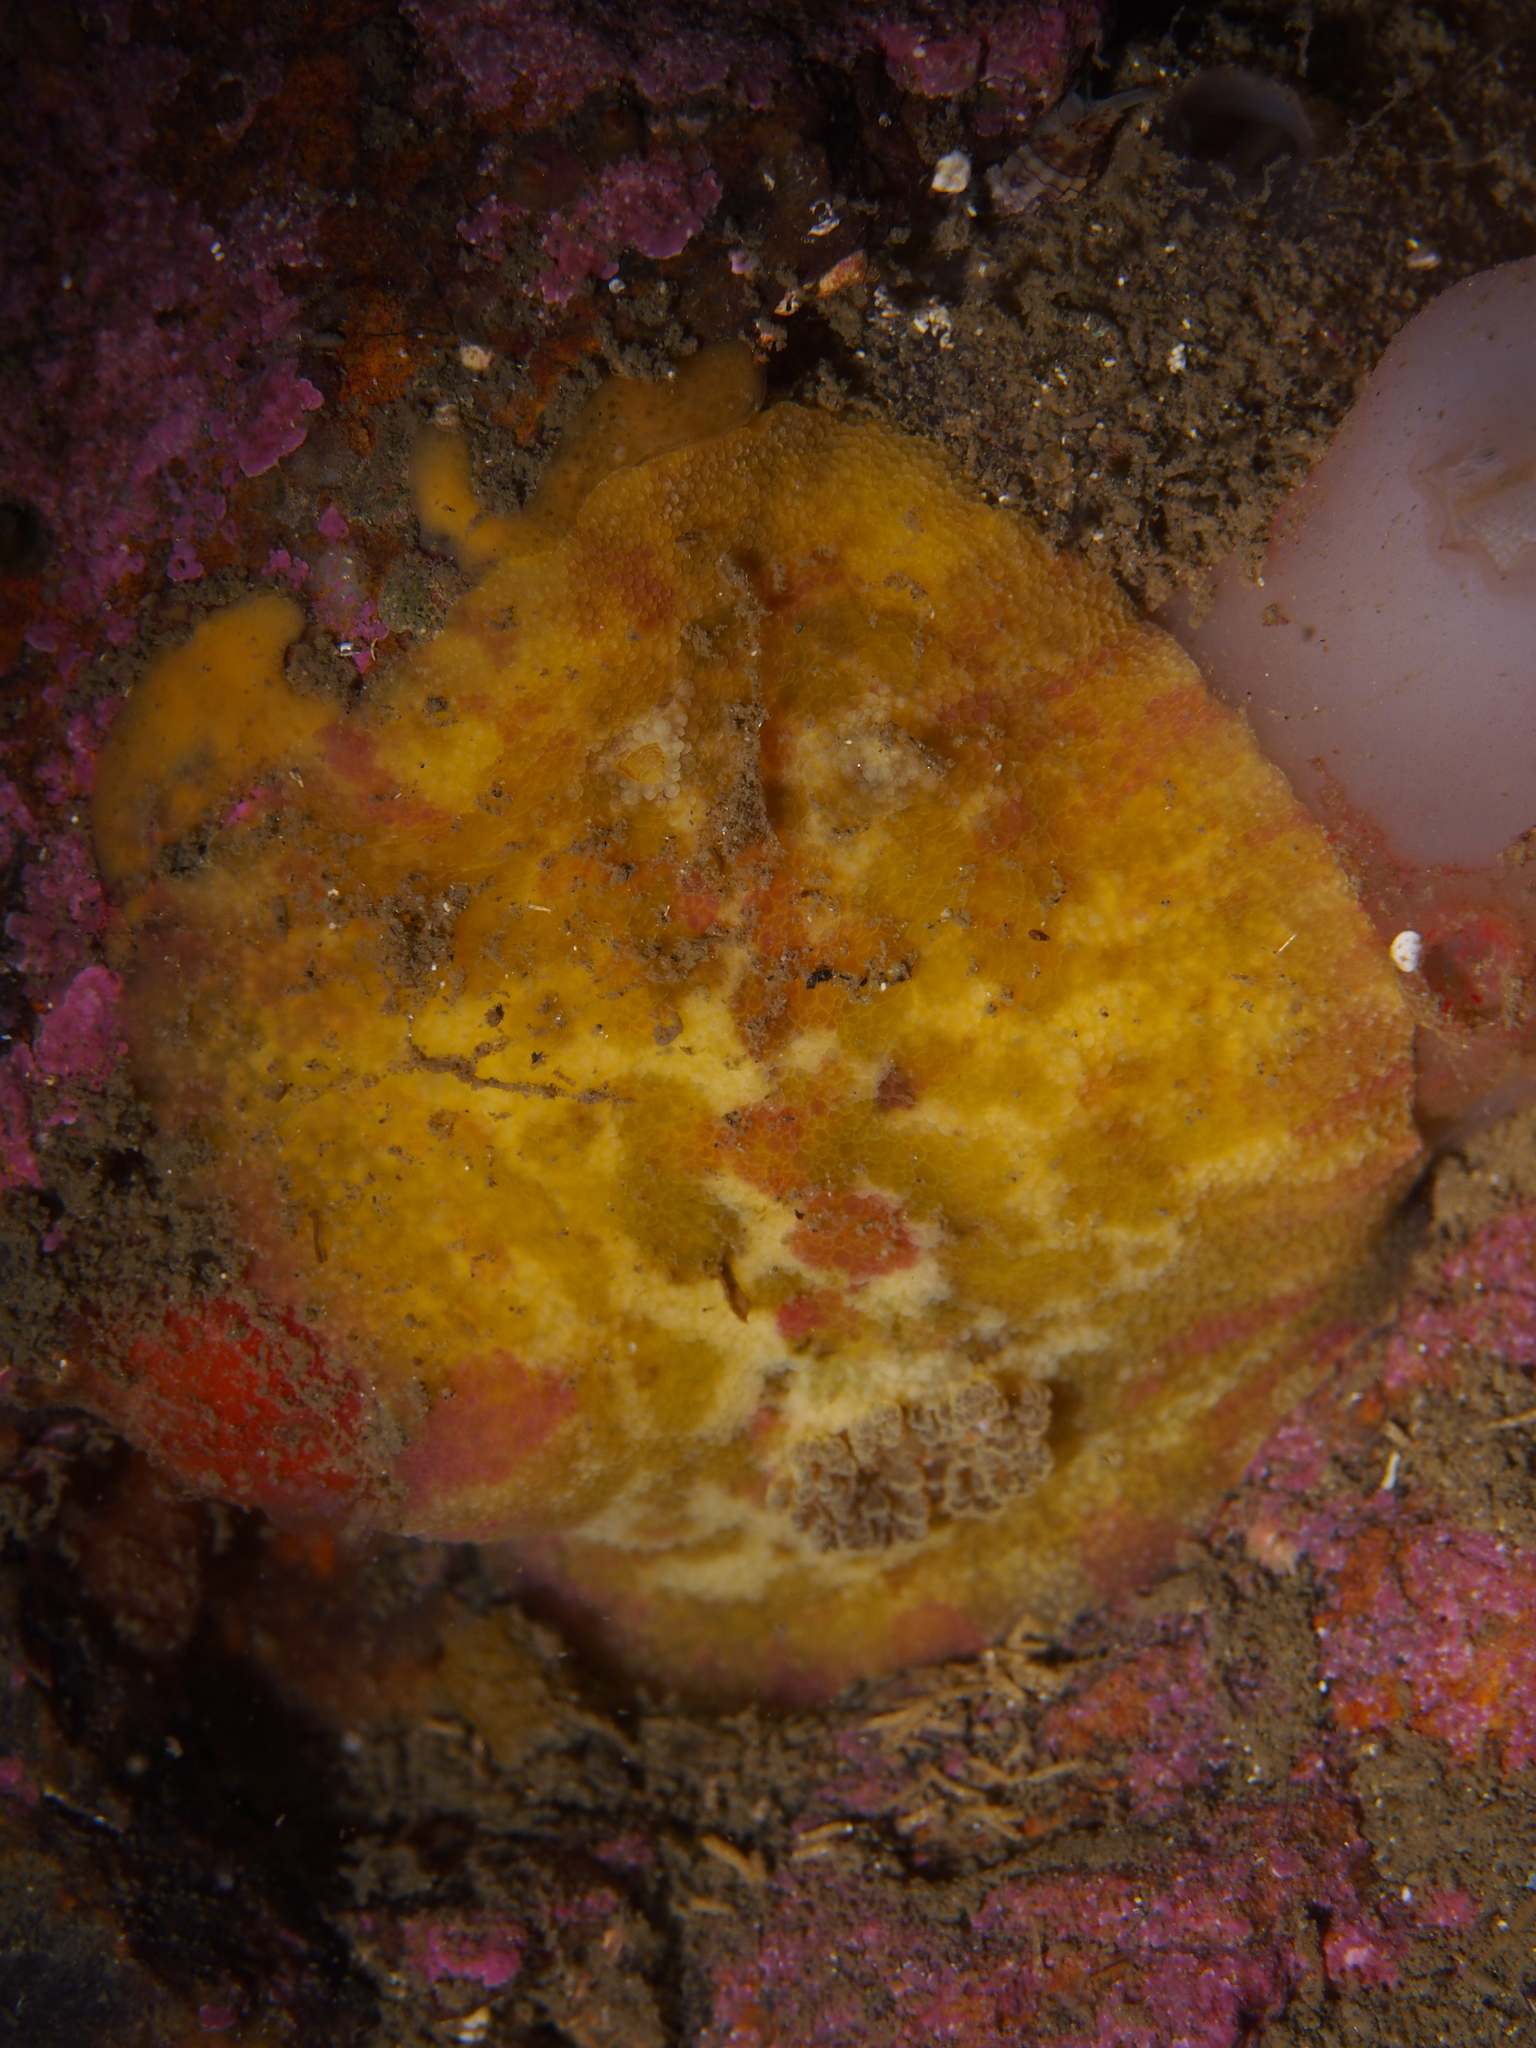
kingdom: Animalia
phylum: Mollusca
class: Gastropoda
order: Nudibranchia
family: Dorididae
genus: Doris
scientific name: Doris pseudoargus
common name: Sea lemon
